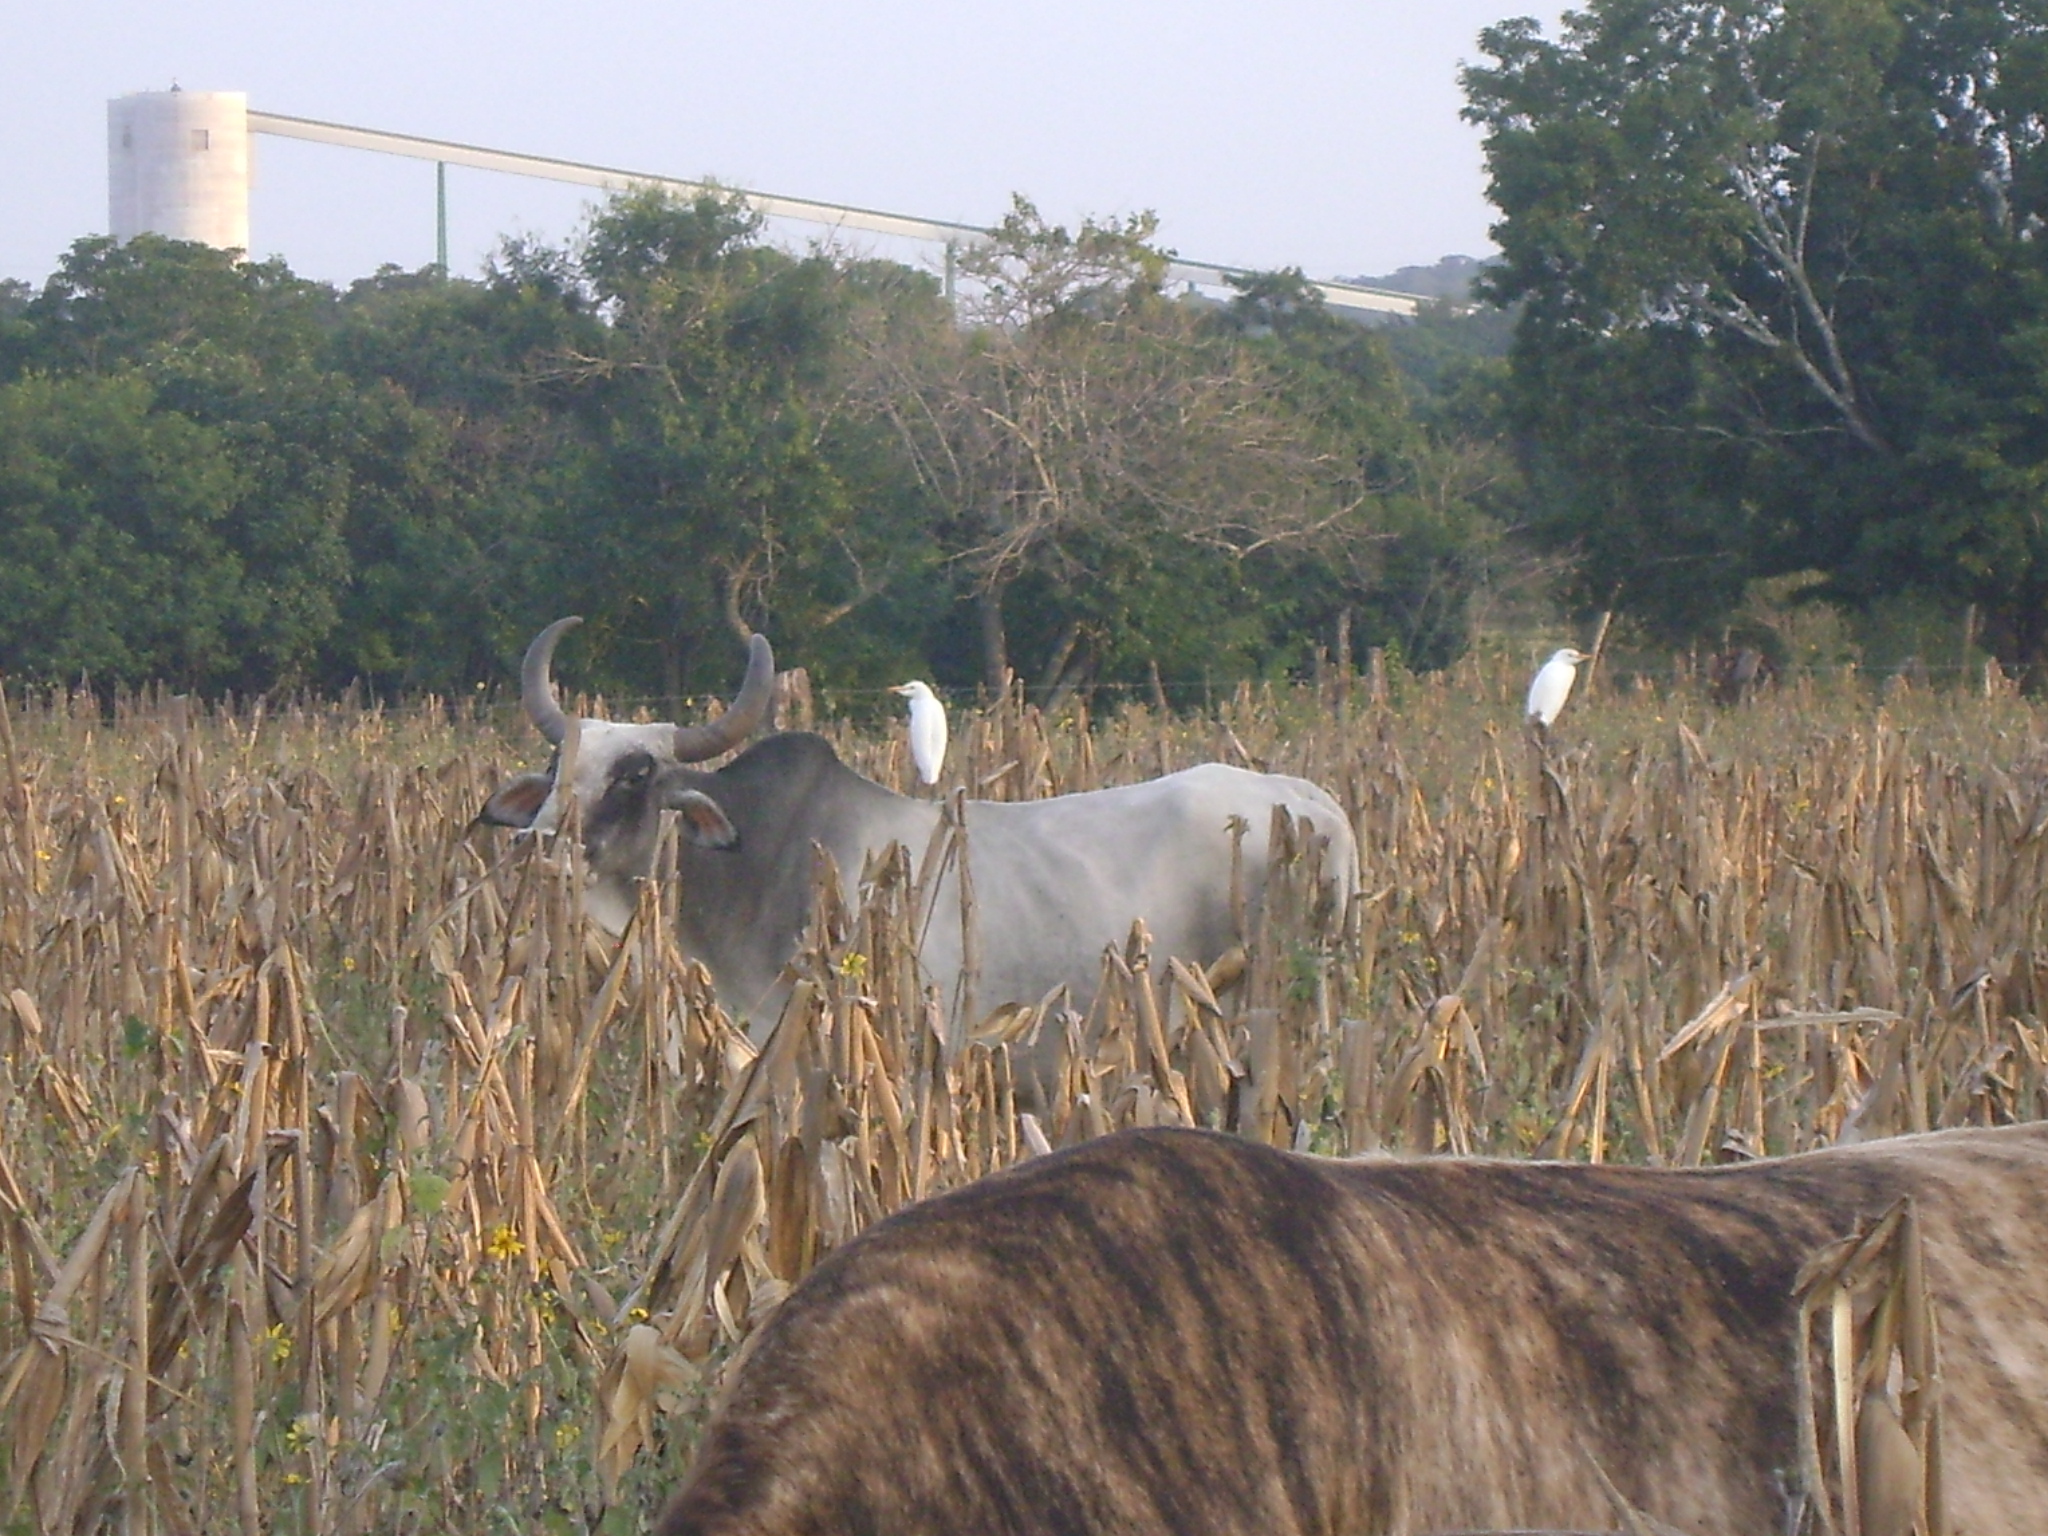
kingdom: Animalia
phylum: Chordata
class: Aves
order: Pelecaniformes
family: Ardeidae
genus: Bubulcus
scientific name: Bubulcus ibis
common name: Cattle egret
